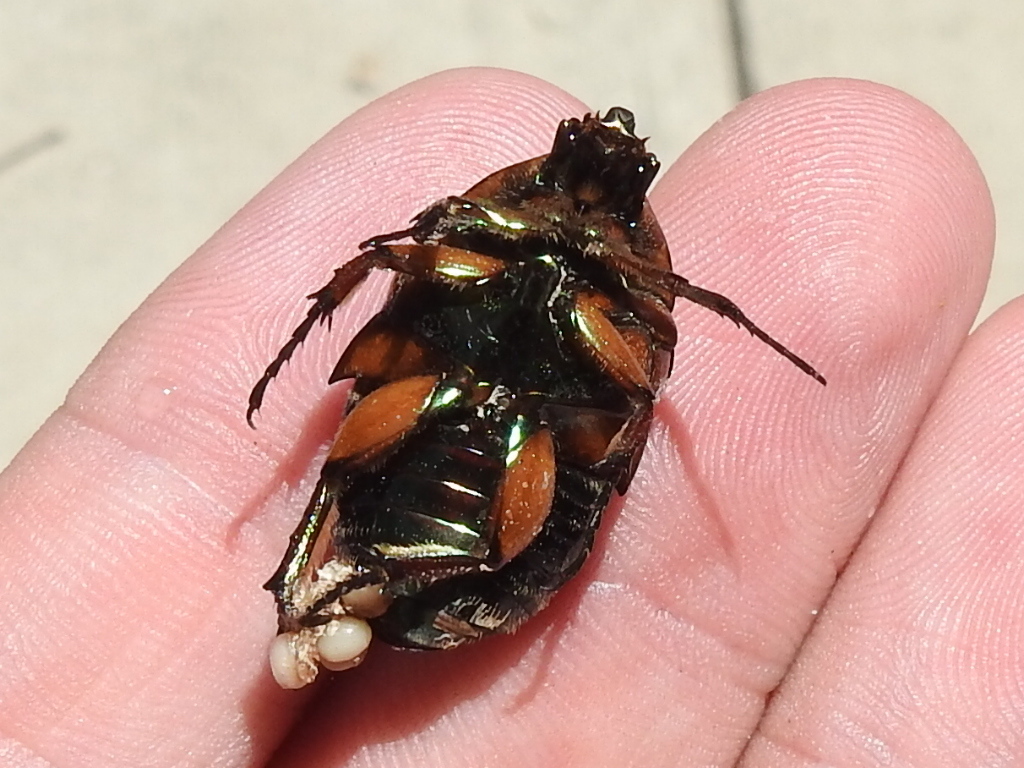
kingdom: Animalia
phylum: Arthropoda
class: Insecta
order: Coleoptera
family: Scarabaeidae
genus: Cotinis
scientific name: Cotinis nitida
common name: Common green june beetle
